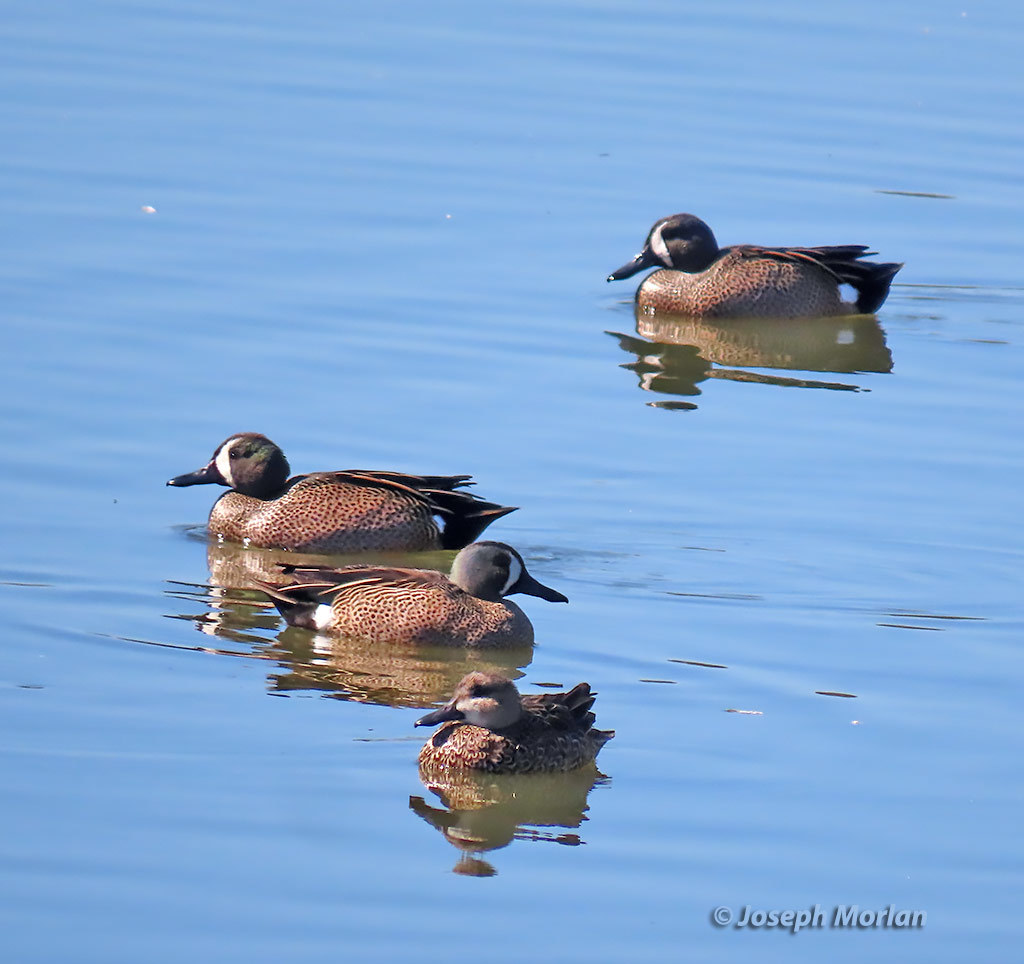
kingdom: Animalia
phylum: Chordata
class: Aves
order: Anseriformes
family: Anatidae
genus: Spatula
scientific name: Spatula discors
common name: Blue-winged teal
